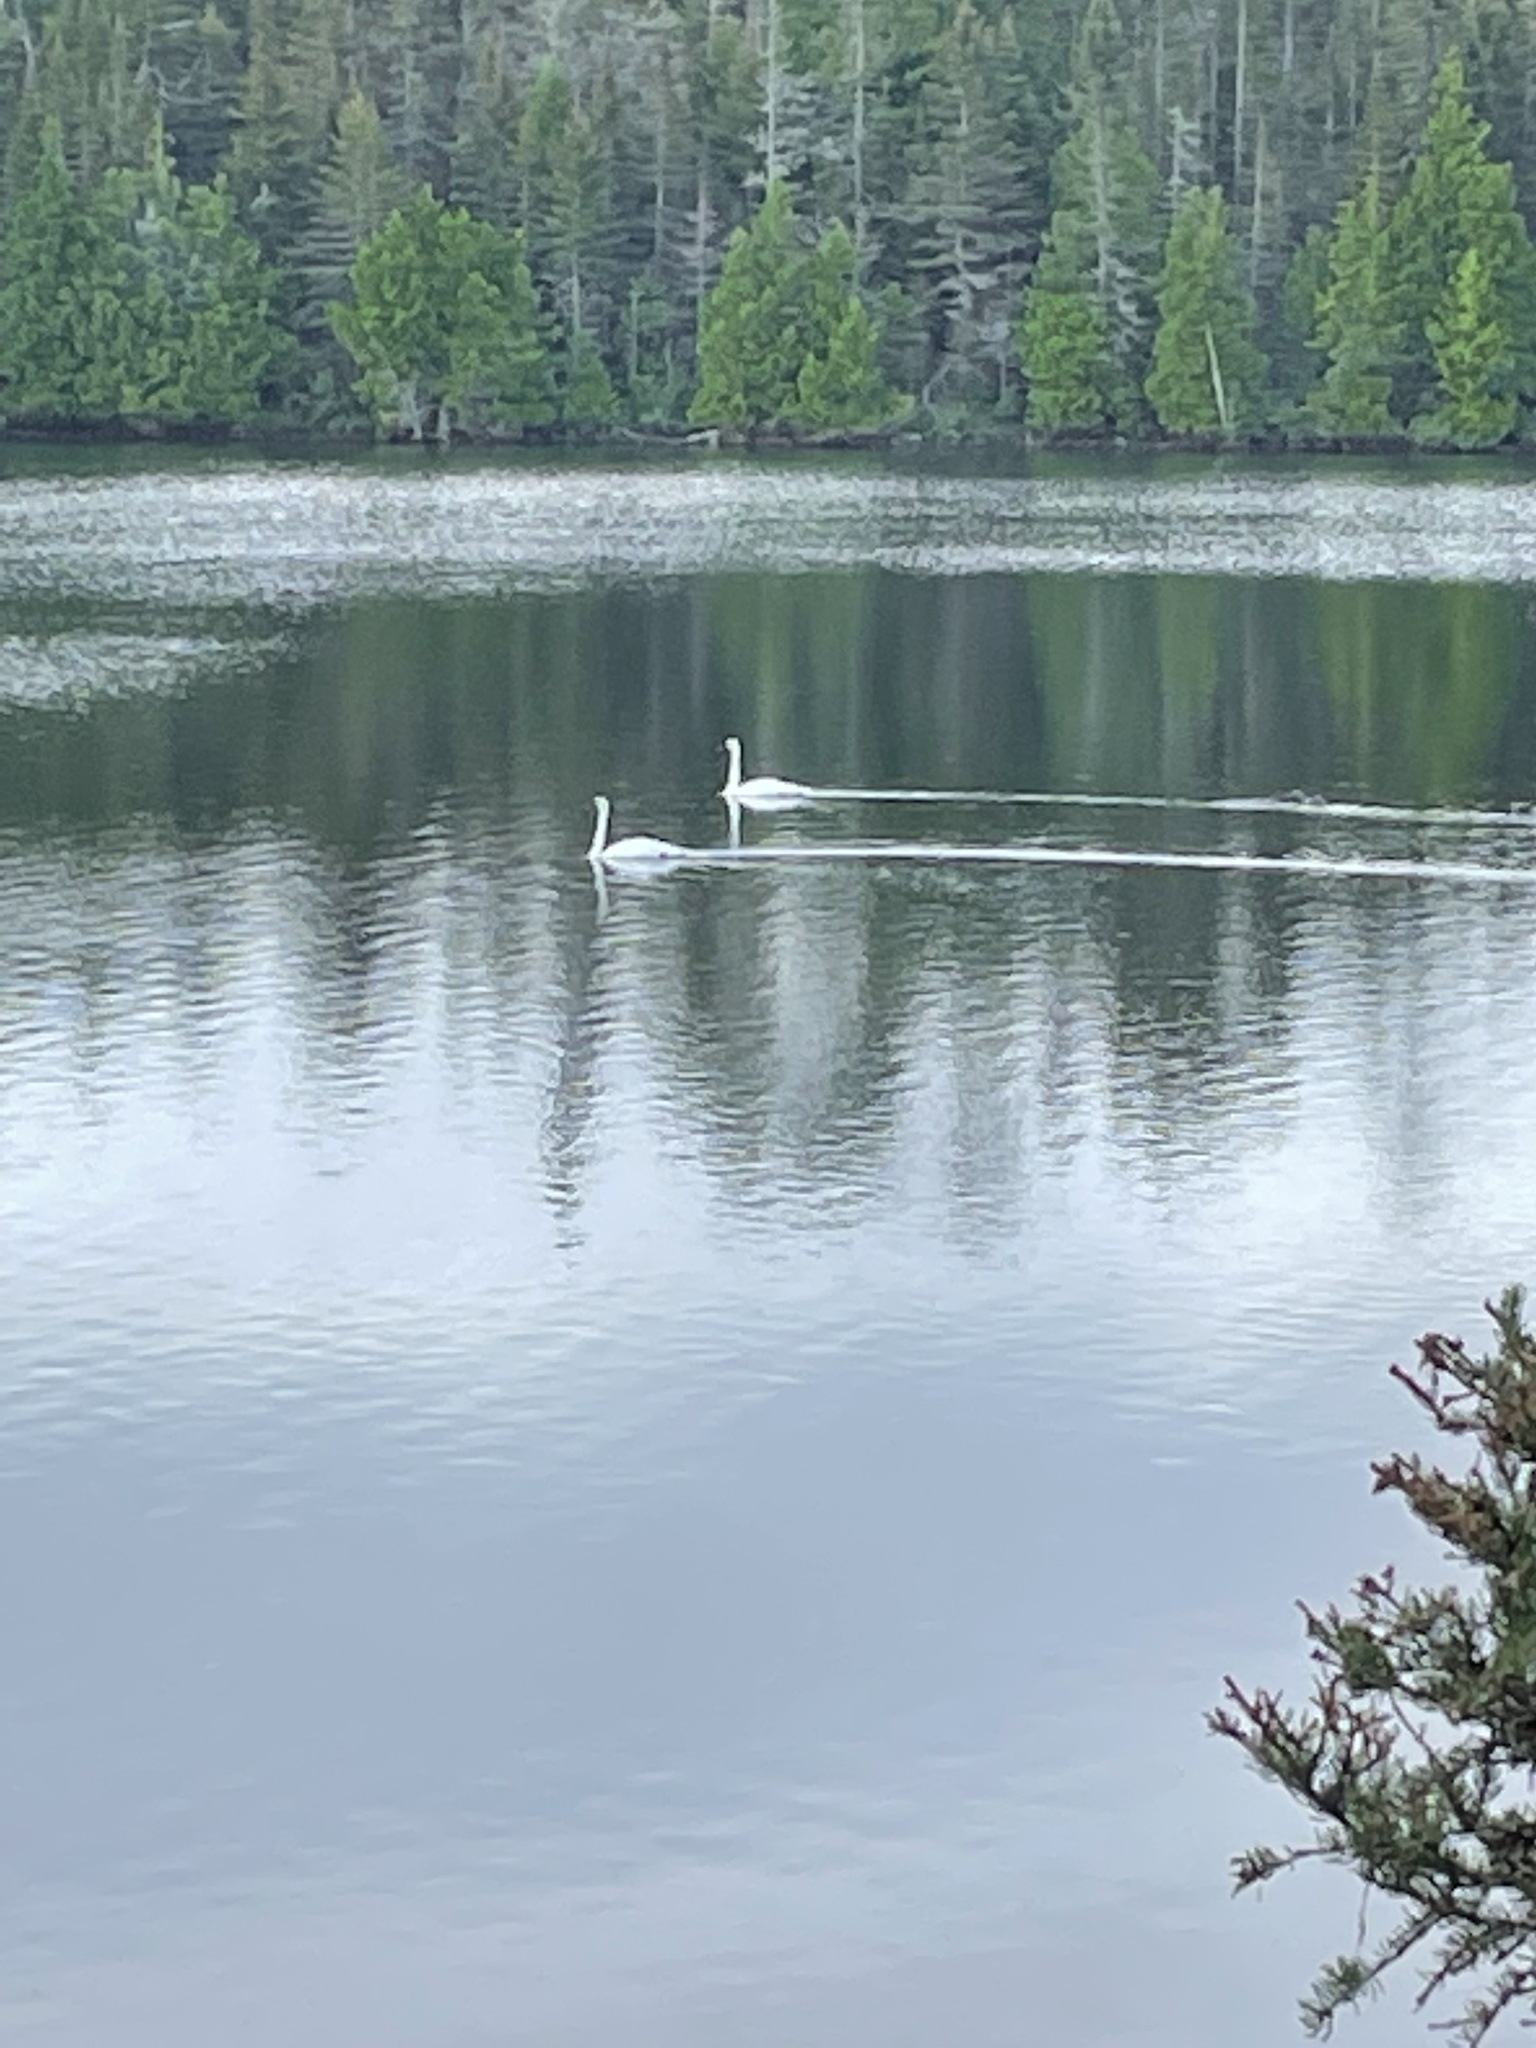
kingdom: Animalia
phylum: Chordata
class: Aves
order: Anseriformes
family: Anatidae
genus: Cygnus
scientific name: Cygnus buccinator
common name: Trumpeter swan
